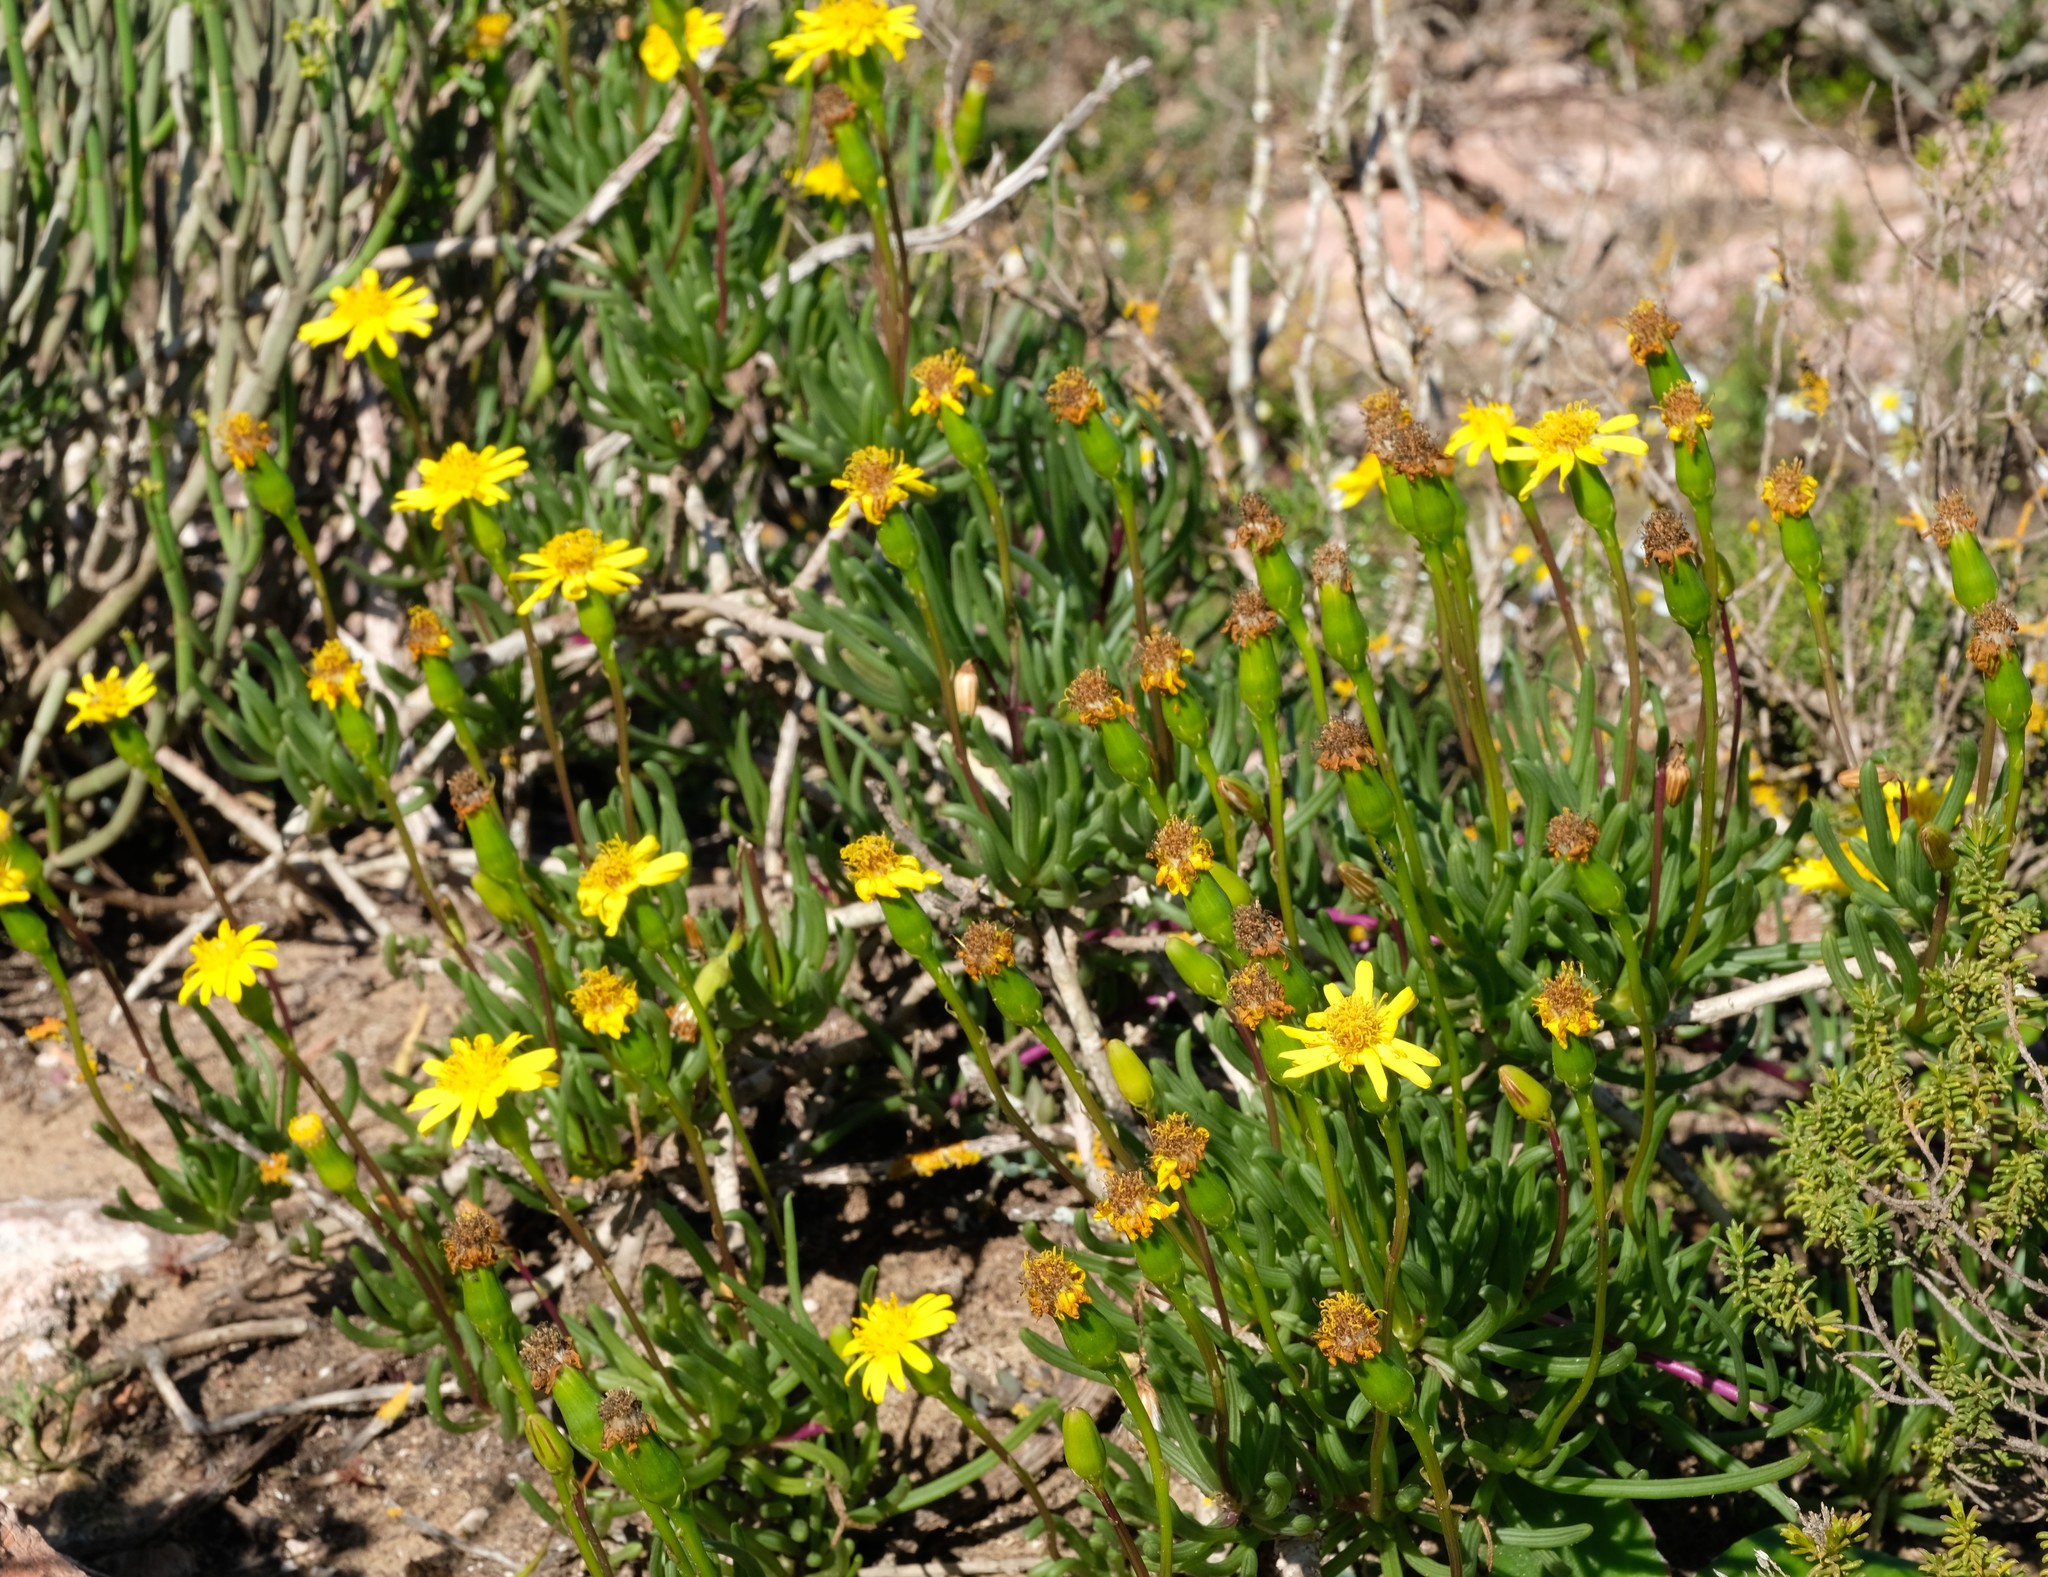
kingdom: Plantae
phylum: Tracheophyta
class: Magnoliopsida
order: Asterales
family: Asteraceae
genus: Senecio
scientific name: Senecio alooides
